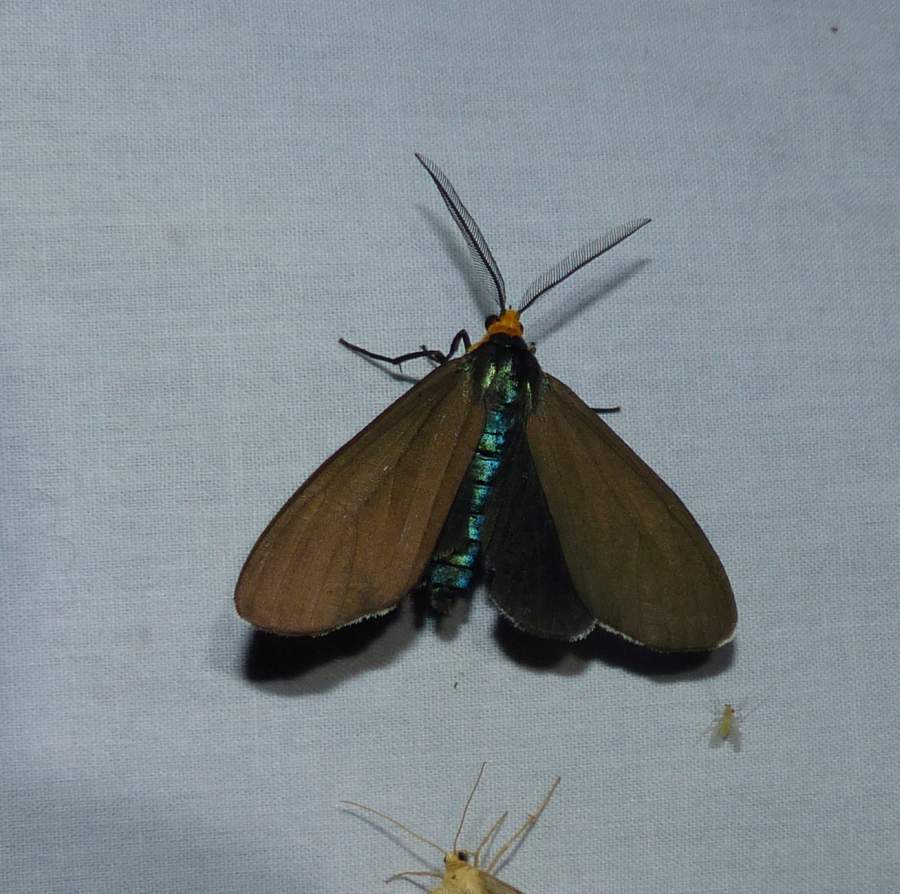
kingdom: Animalia
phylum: Arthropoda
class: Insecta
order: Lepidoptera
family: Erebidae
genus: Ctenucha
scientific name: Ctenucha virginica
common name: Virginia ctenucha moth
